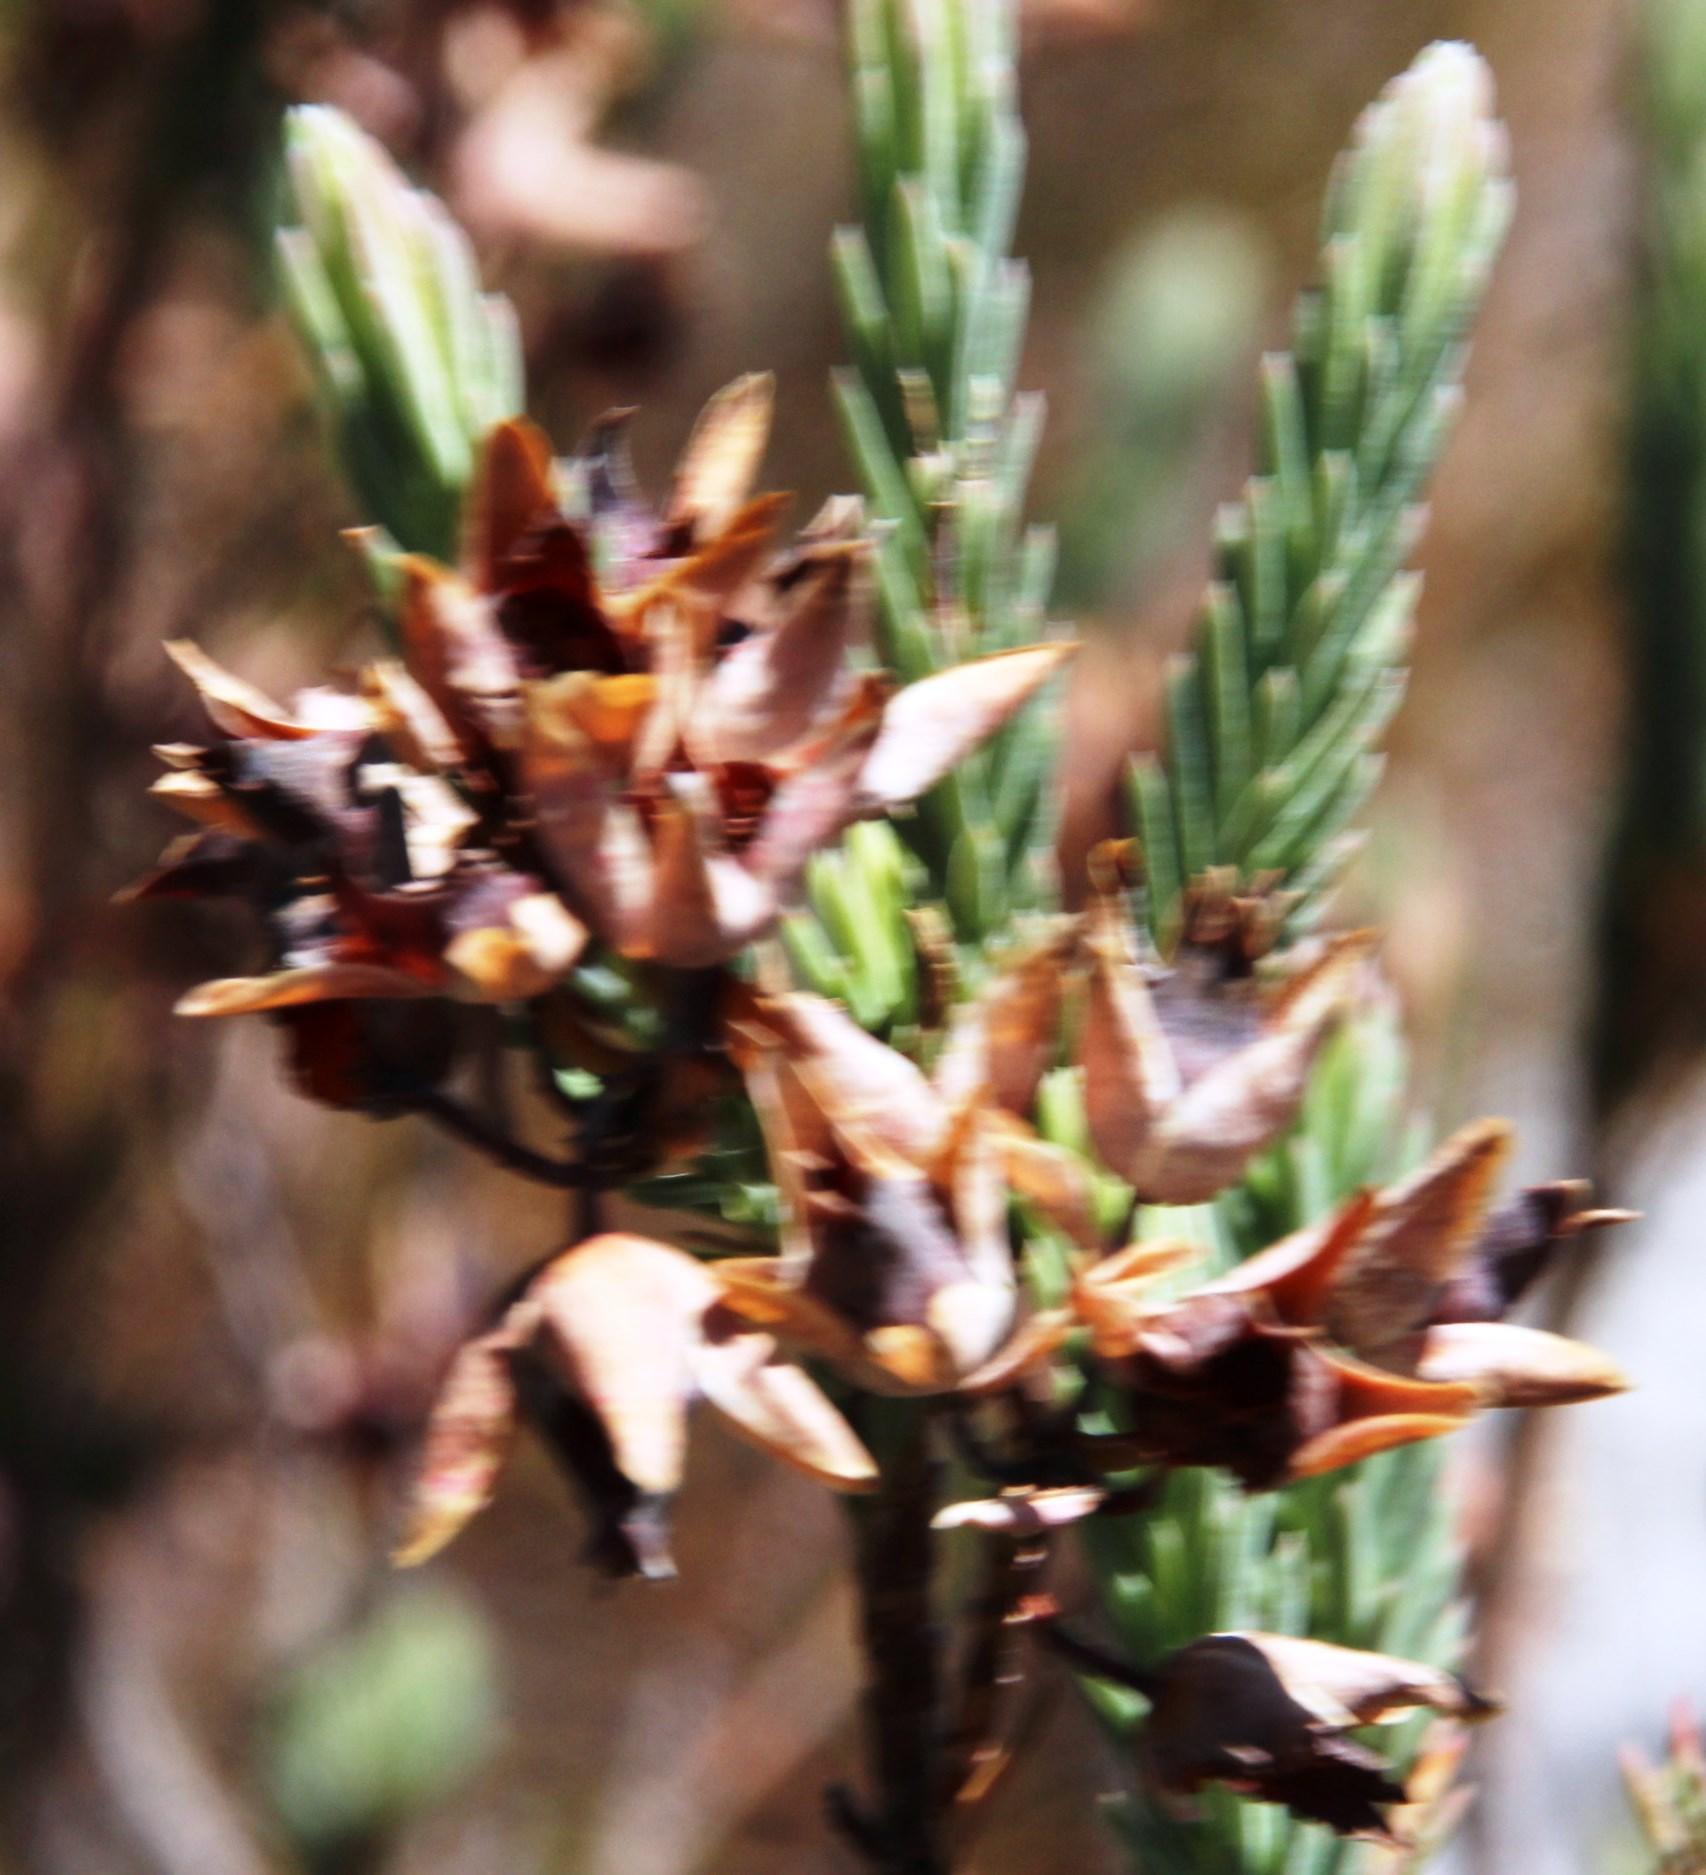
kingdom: Plantae
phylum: Tracheophyta
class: Magnoliopsida
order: Ericales
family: Ericaceae
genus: Erica
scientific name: Erica glauca
